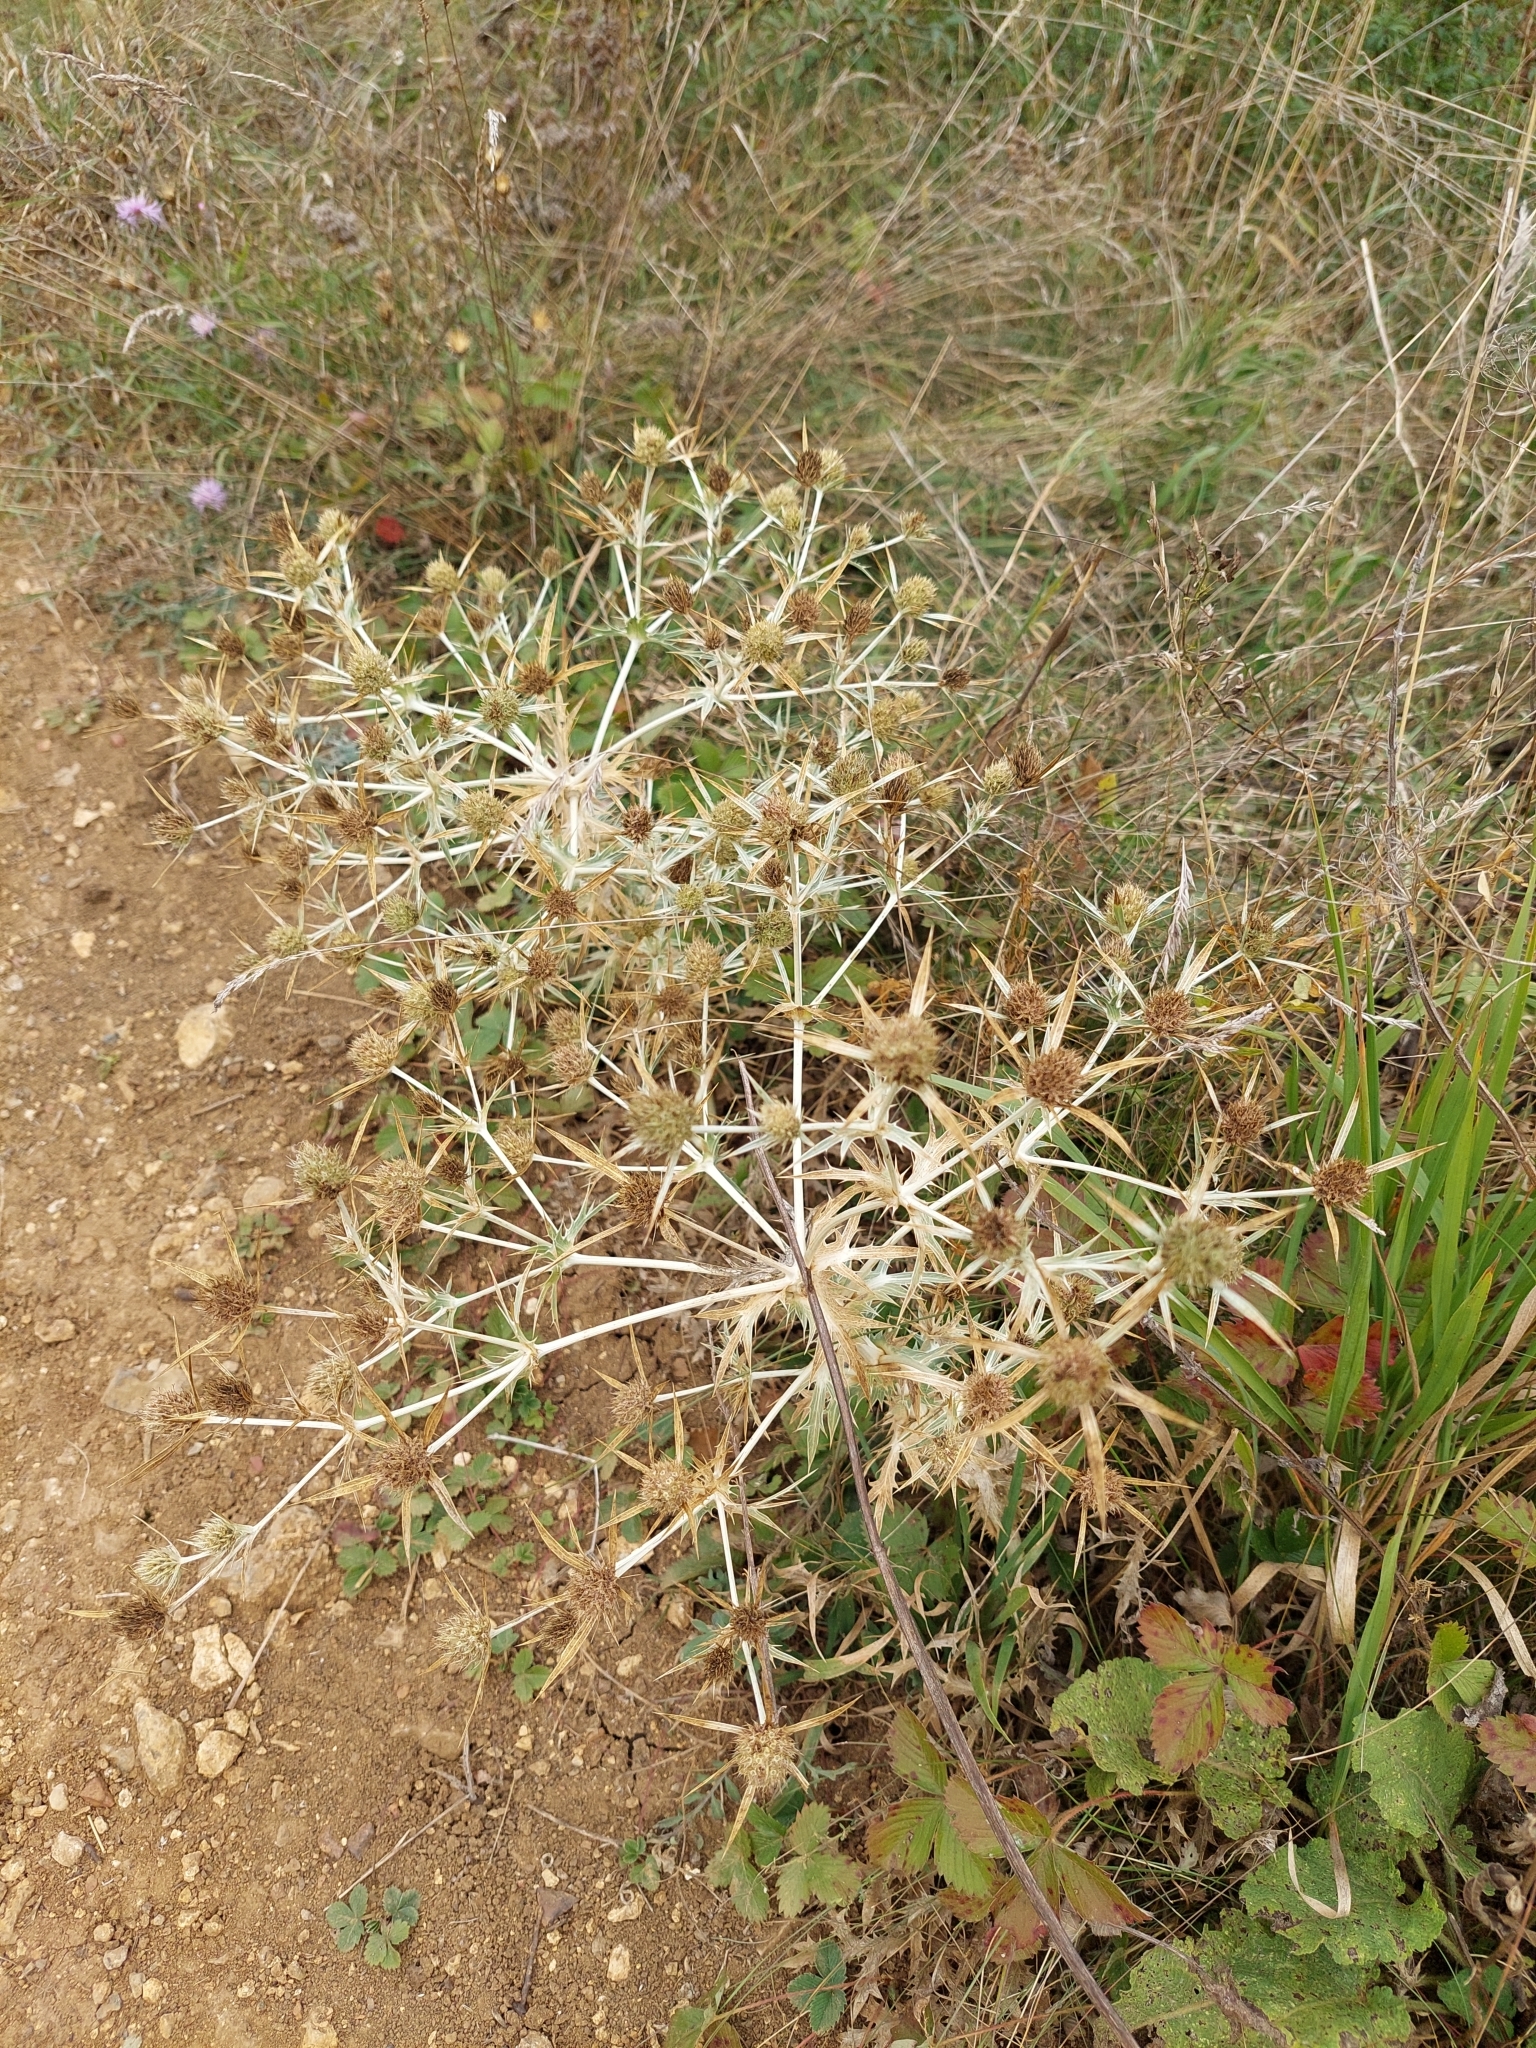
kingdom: Plantae
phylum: Tracheophyta
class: Magnoliopsida
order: Apiales
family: Apiaceae
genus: Eryngium
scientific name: Eryngium campestre
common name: Field eryngo
